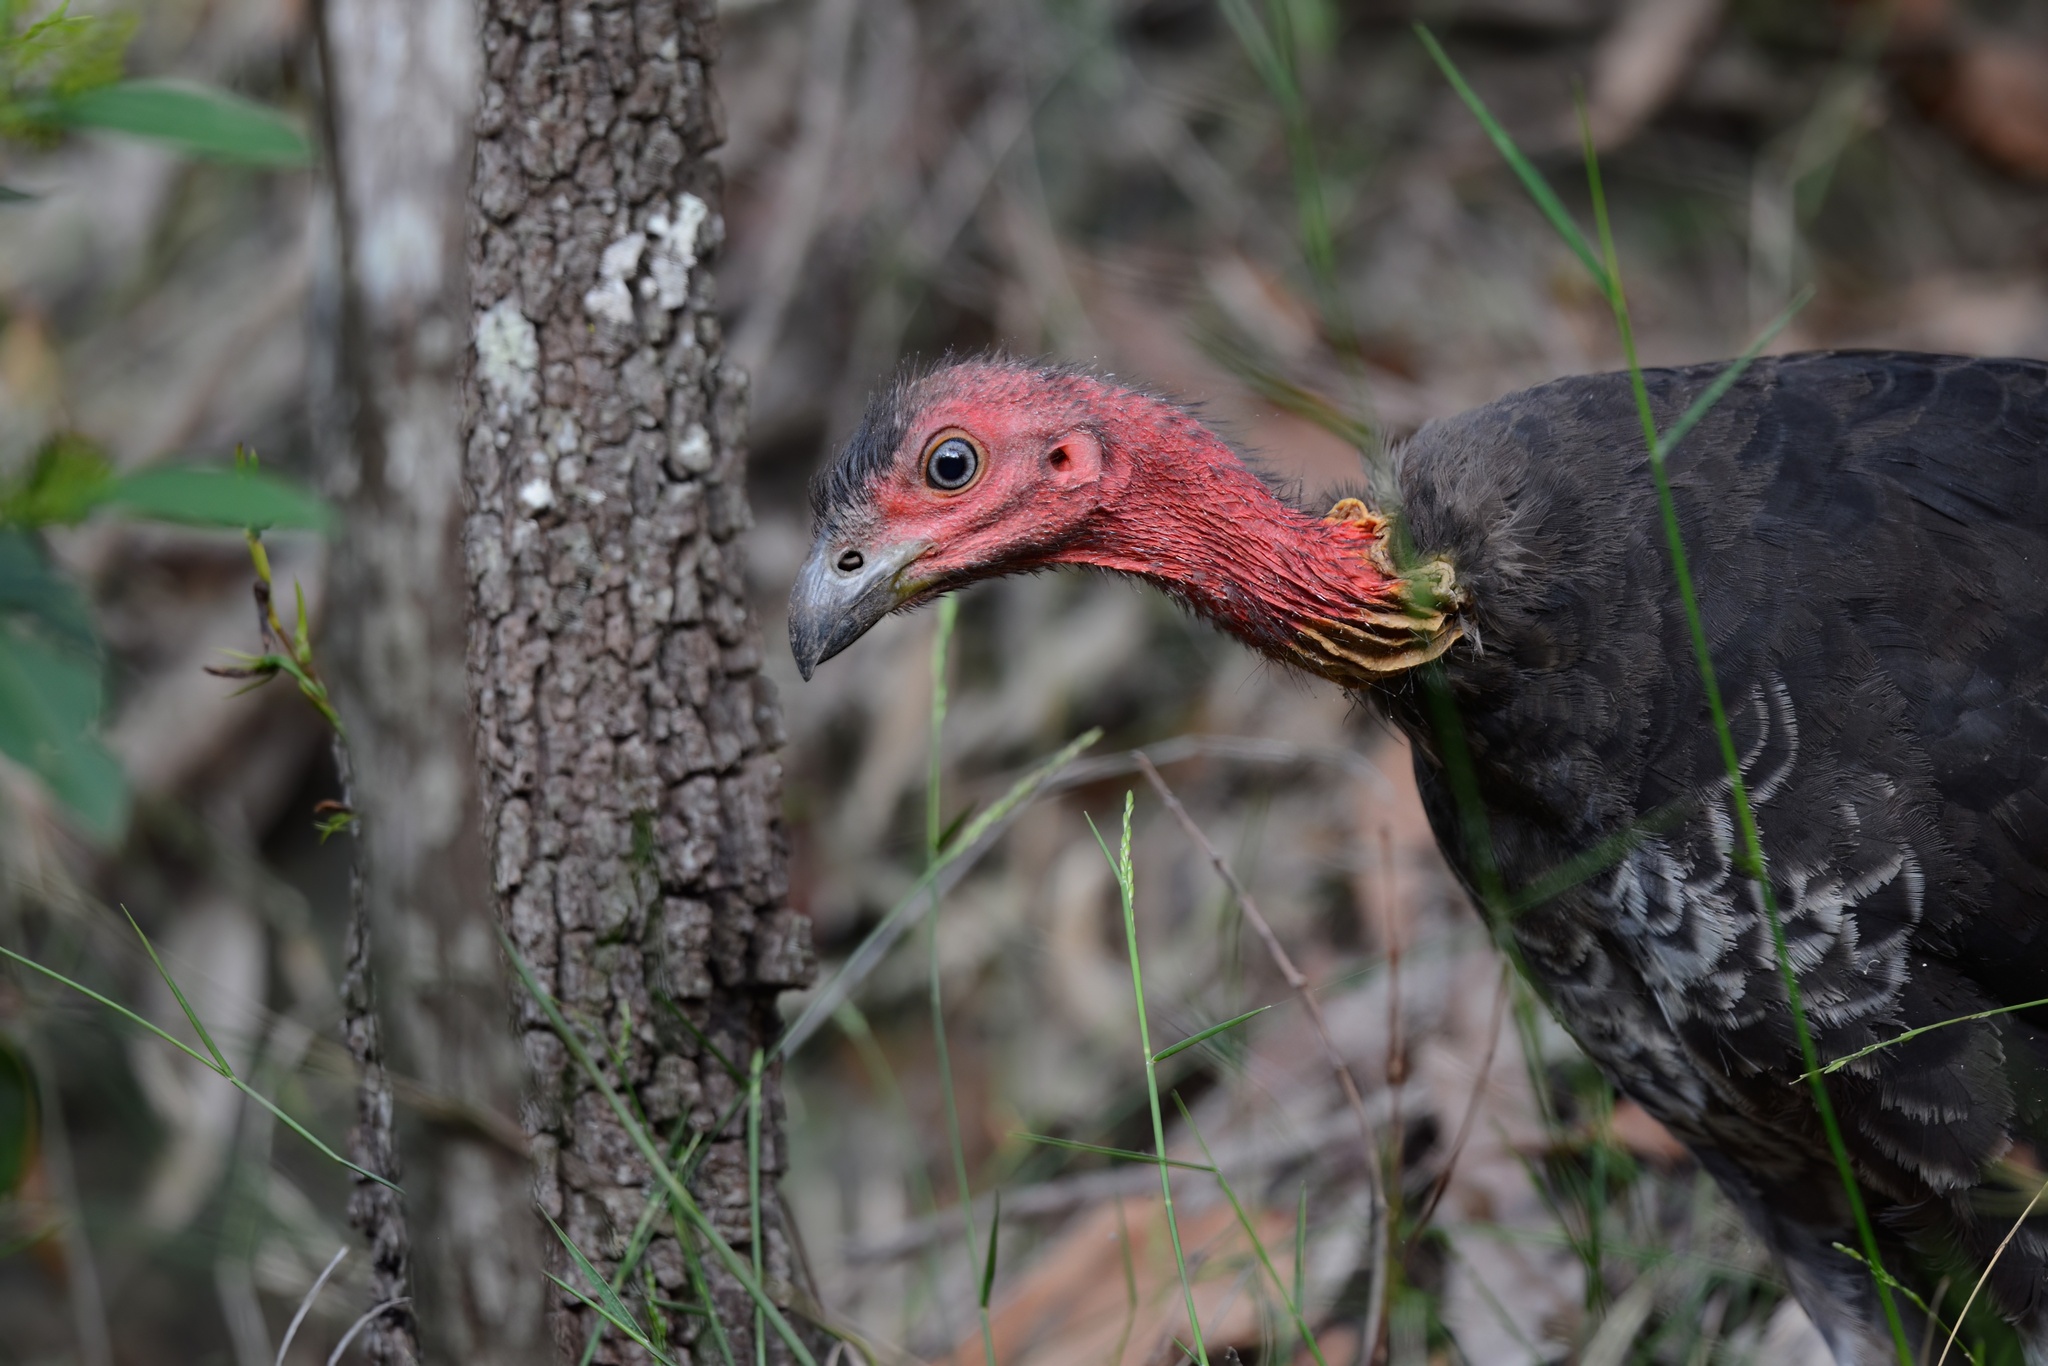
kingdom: Animalia
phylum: Chordata
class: Aves
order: Galliformes
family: Megapodiidae
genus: Alectura
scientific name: Alectura lathami
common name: Australian brushturkey
